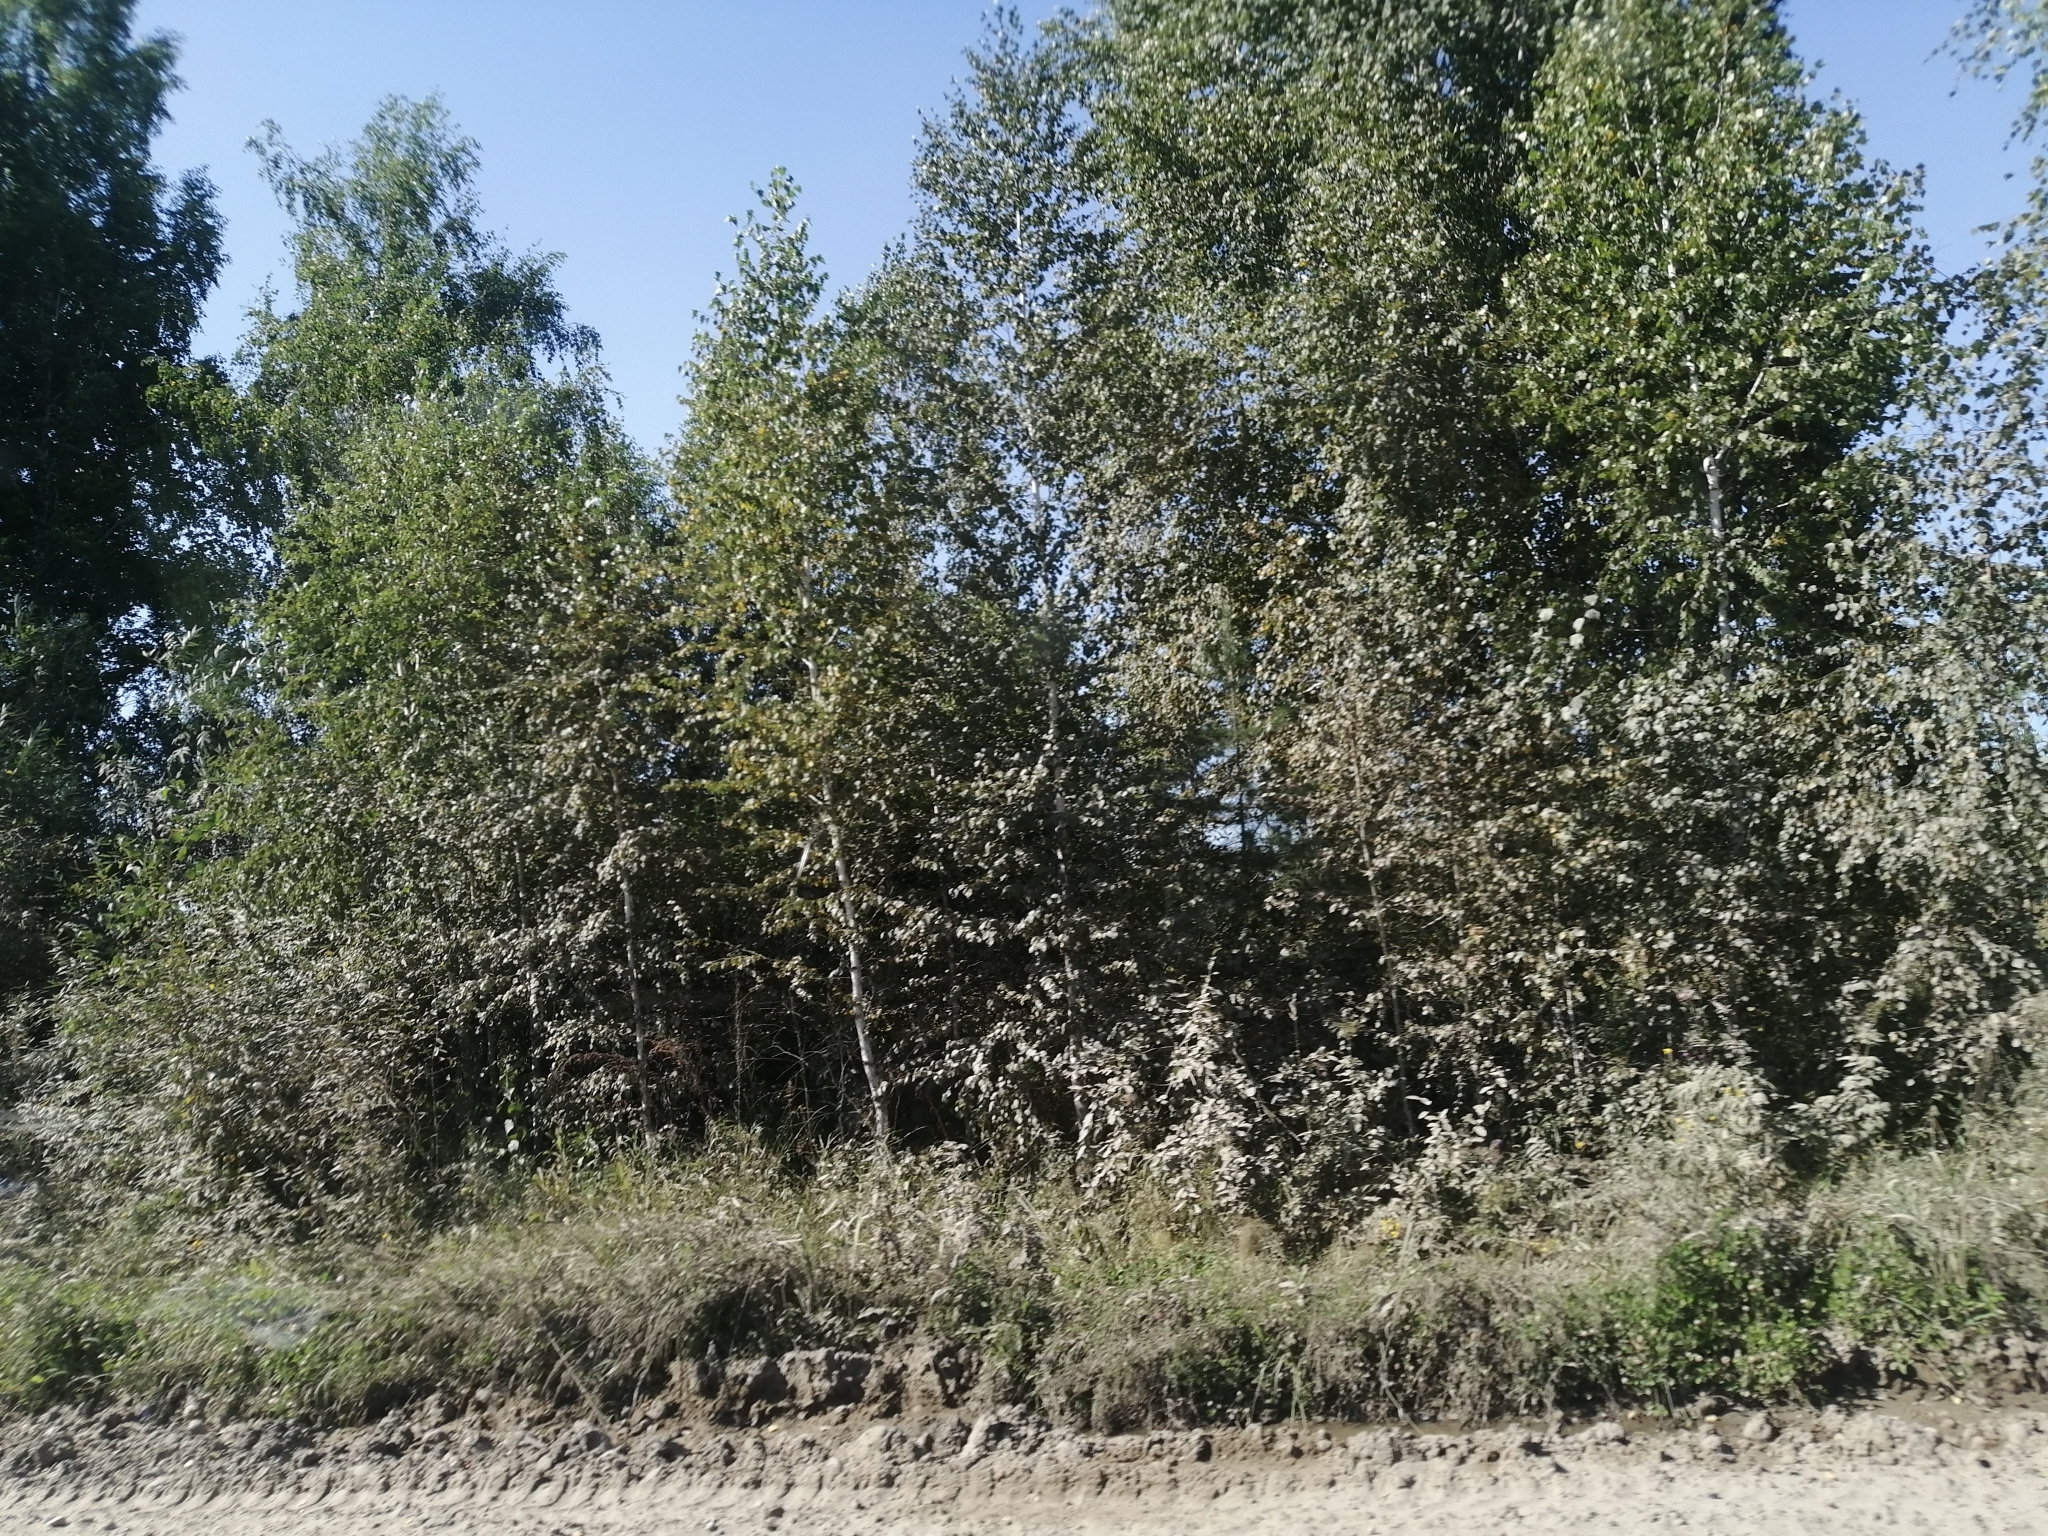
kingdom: Plantae
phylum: Tracheophyta
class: Pinopsida
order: Pinales
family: Pinaceae
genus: Pinus
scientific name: Pinus sylvestris
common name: Scots pine
